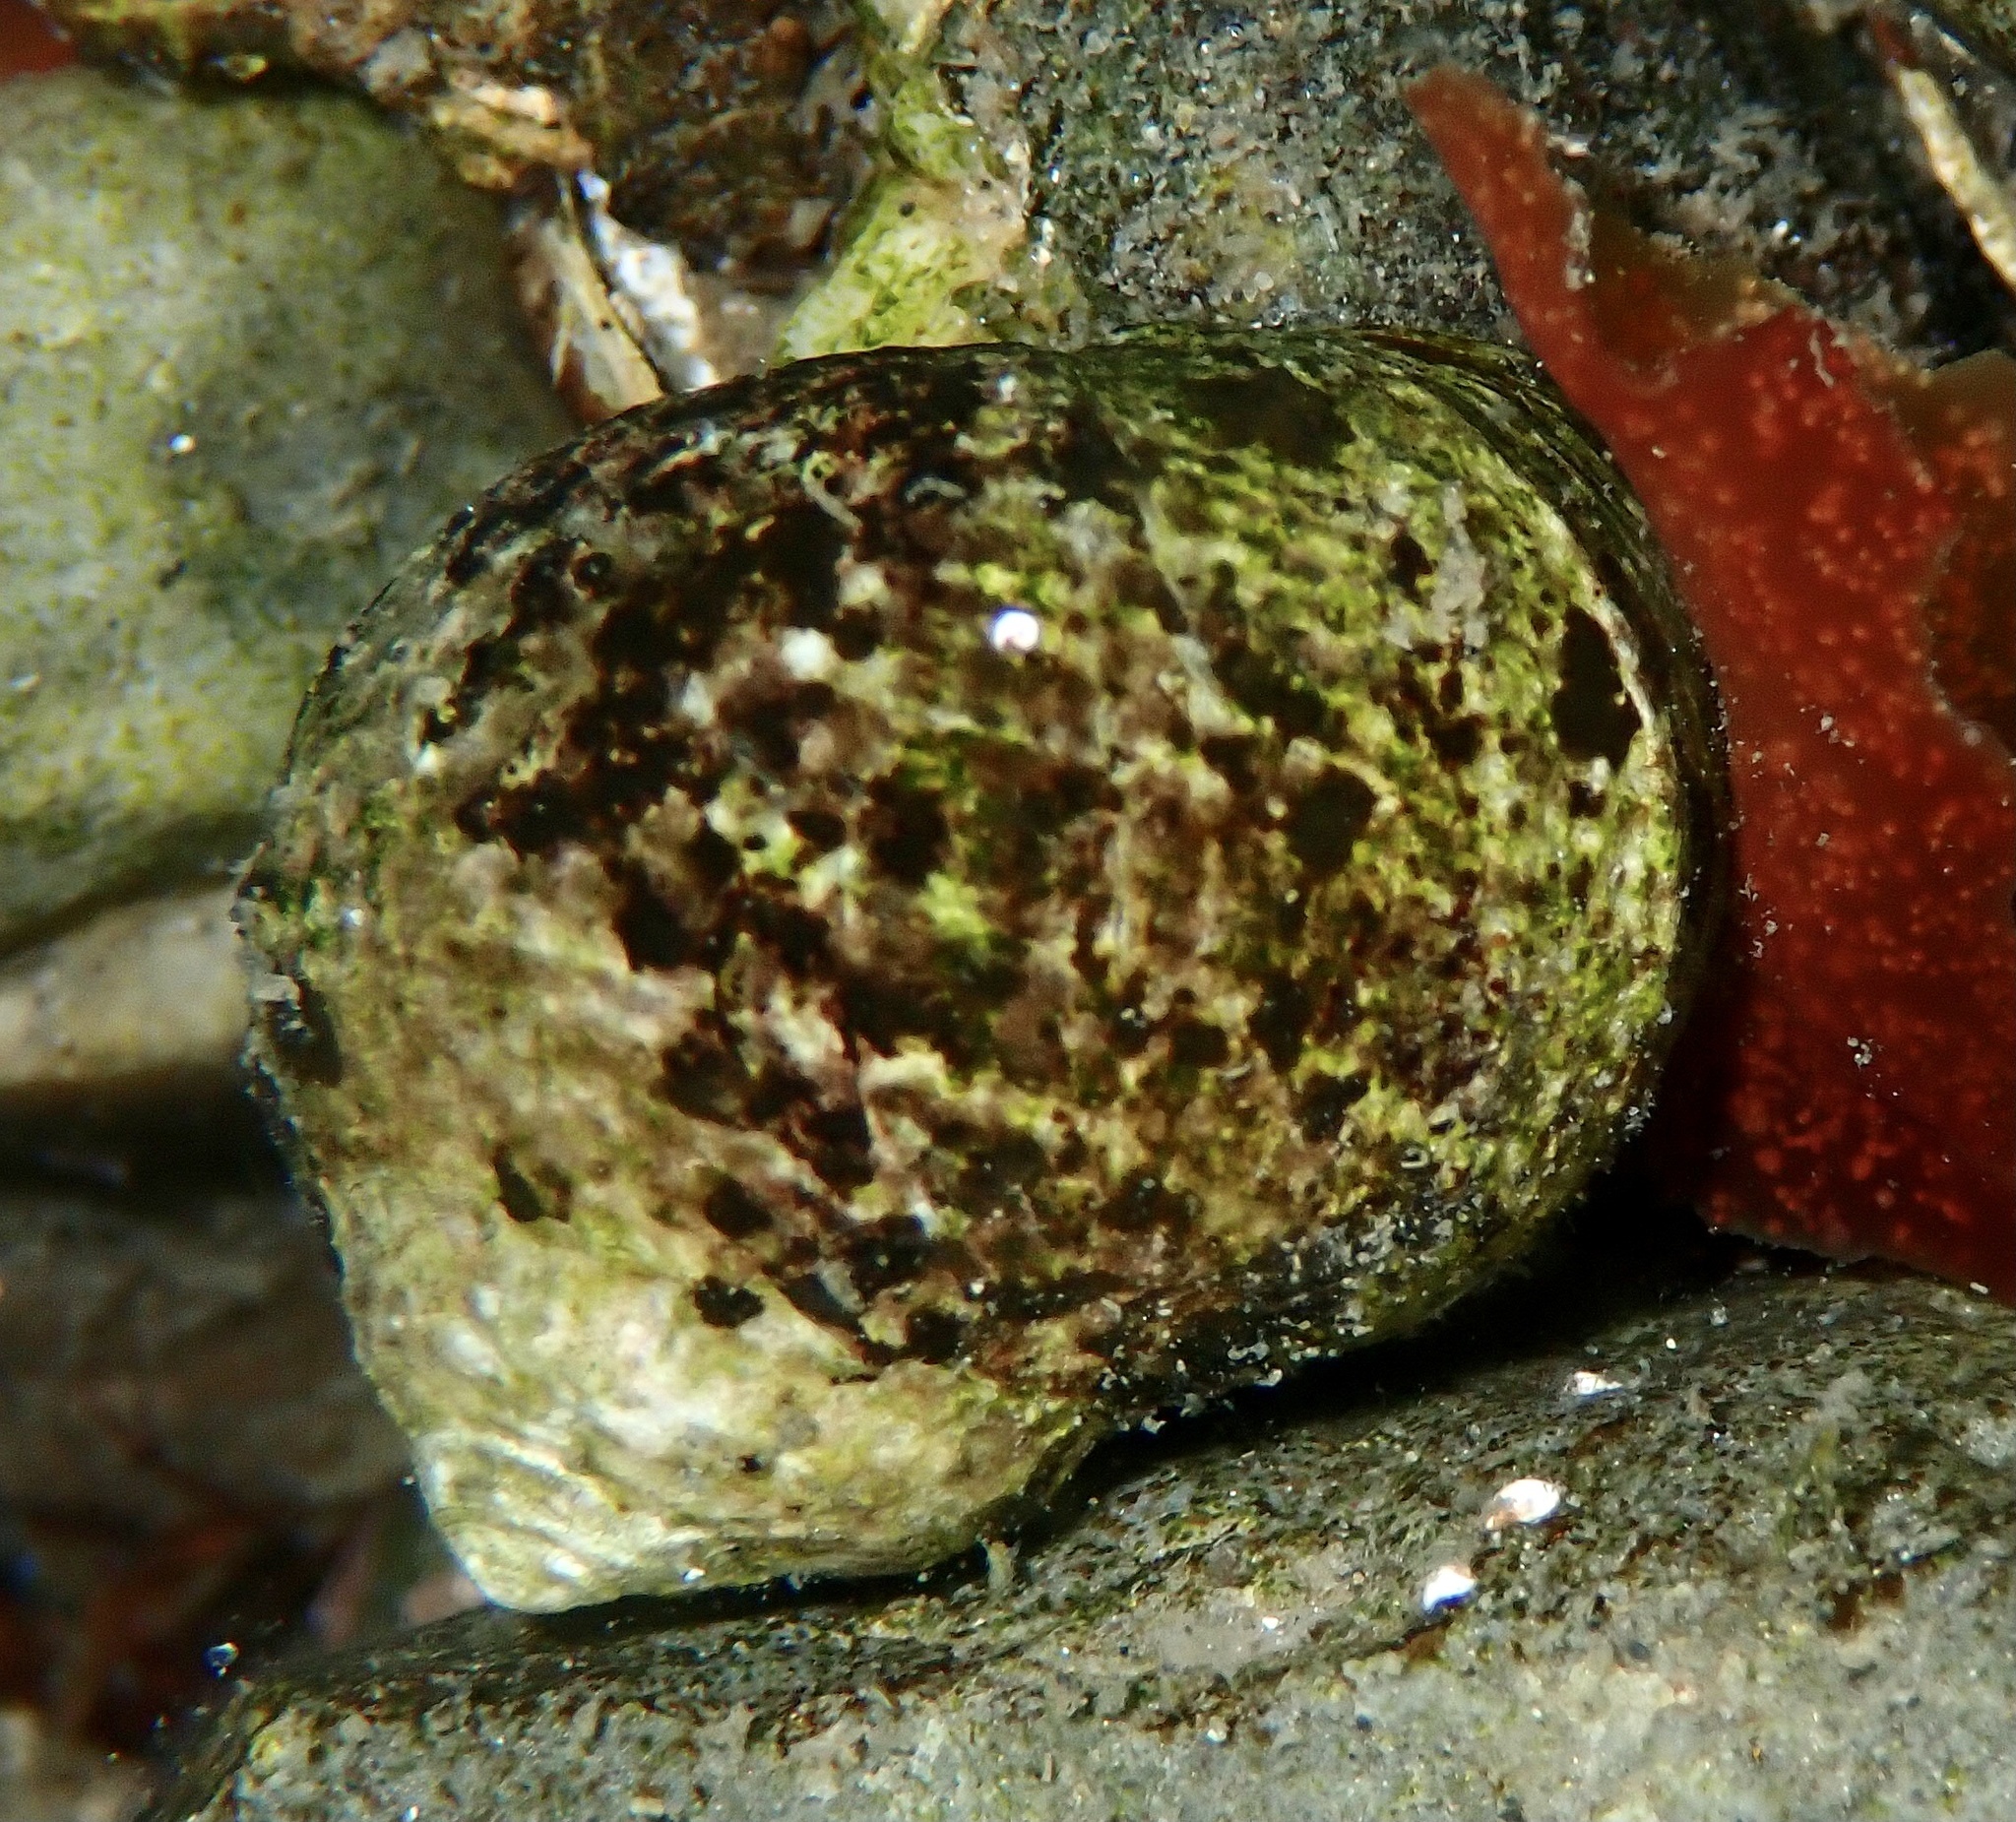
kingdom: Animalia
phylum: Mollusca
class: Gastropoda
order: Littorinimorpha
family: Littorinidae
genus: Littorina
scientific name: Littorina littorea
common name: Common periwinkle
